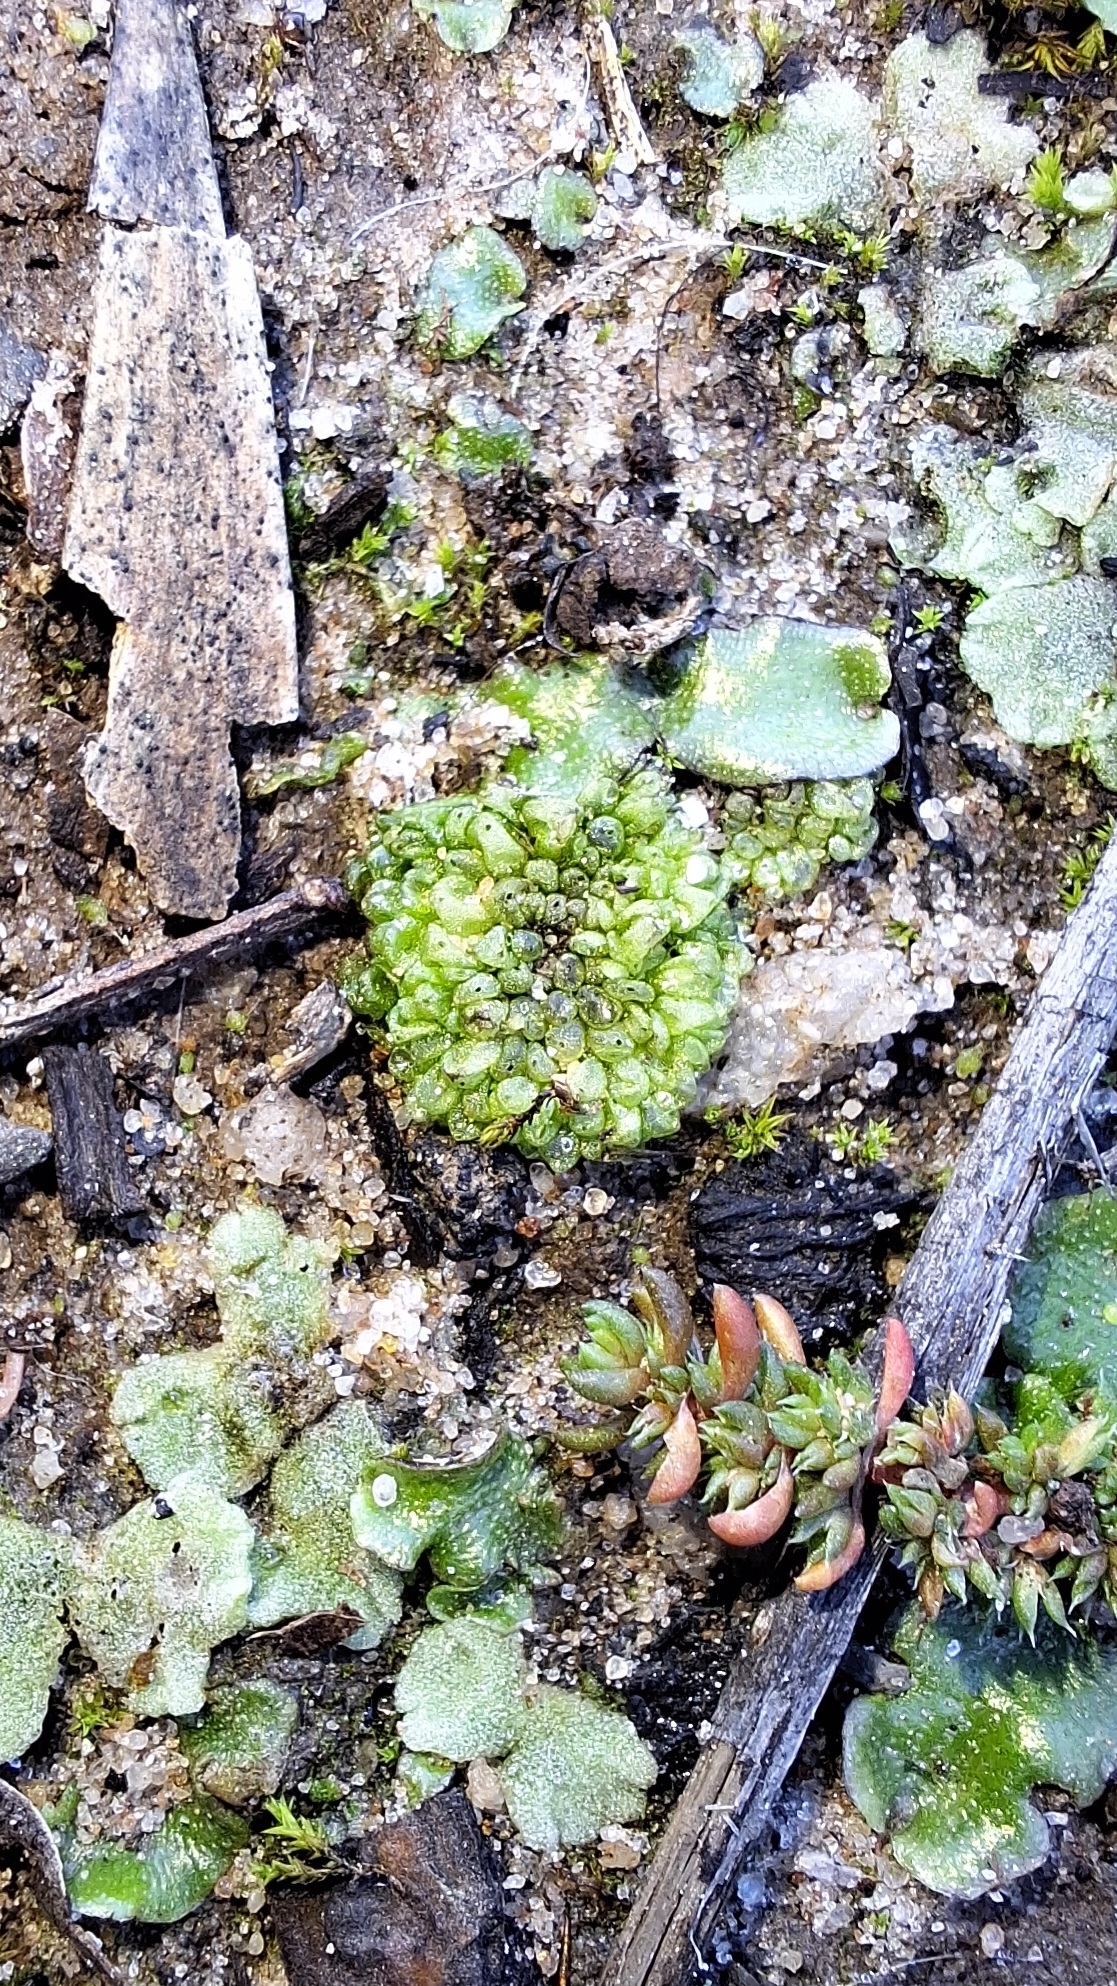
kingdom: Plantae
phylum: Marchantiophyta
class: Marchantiopsida
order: Sphaerocarpales
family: Sphaerocarpaceae
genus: Sphaerocarpos
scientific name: Sphaerocarpos texanus
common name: Texas balloonwort
